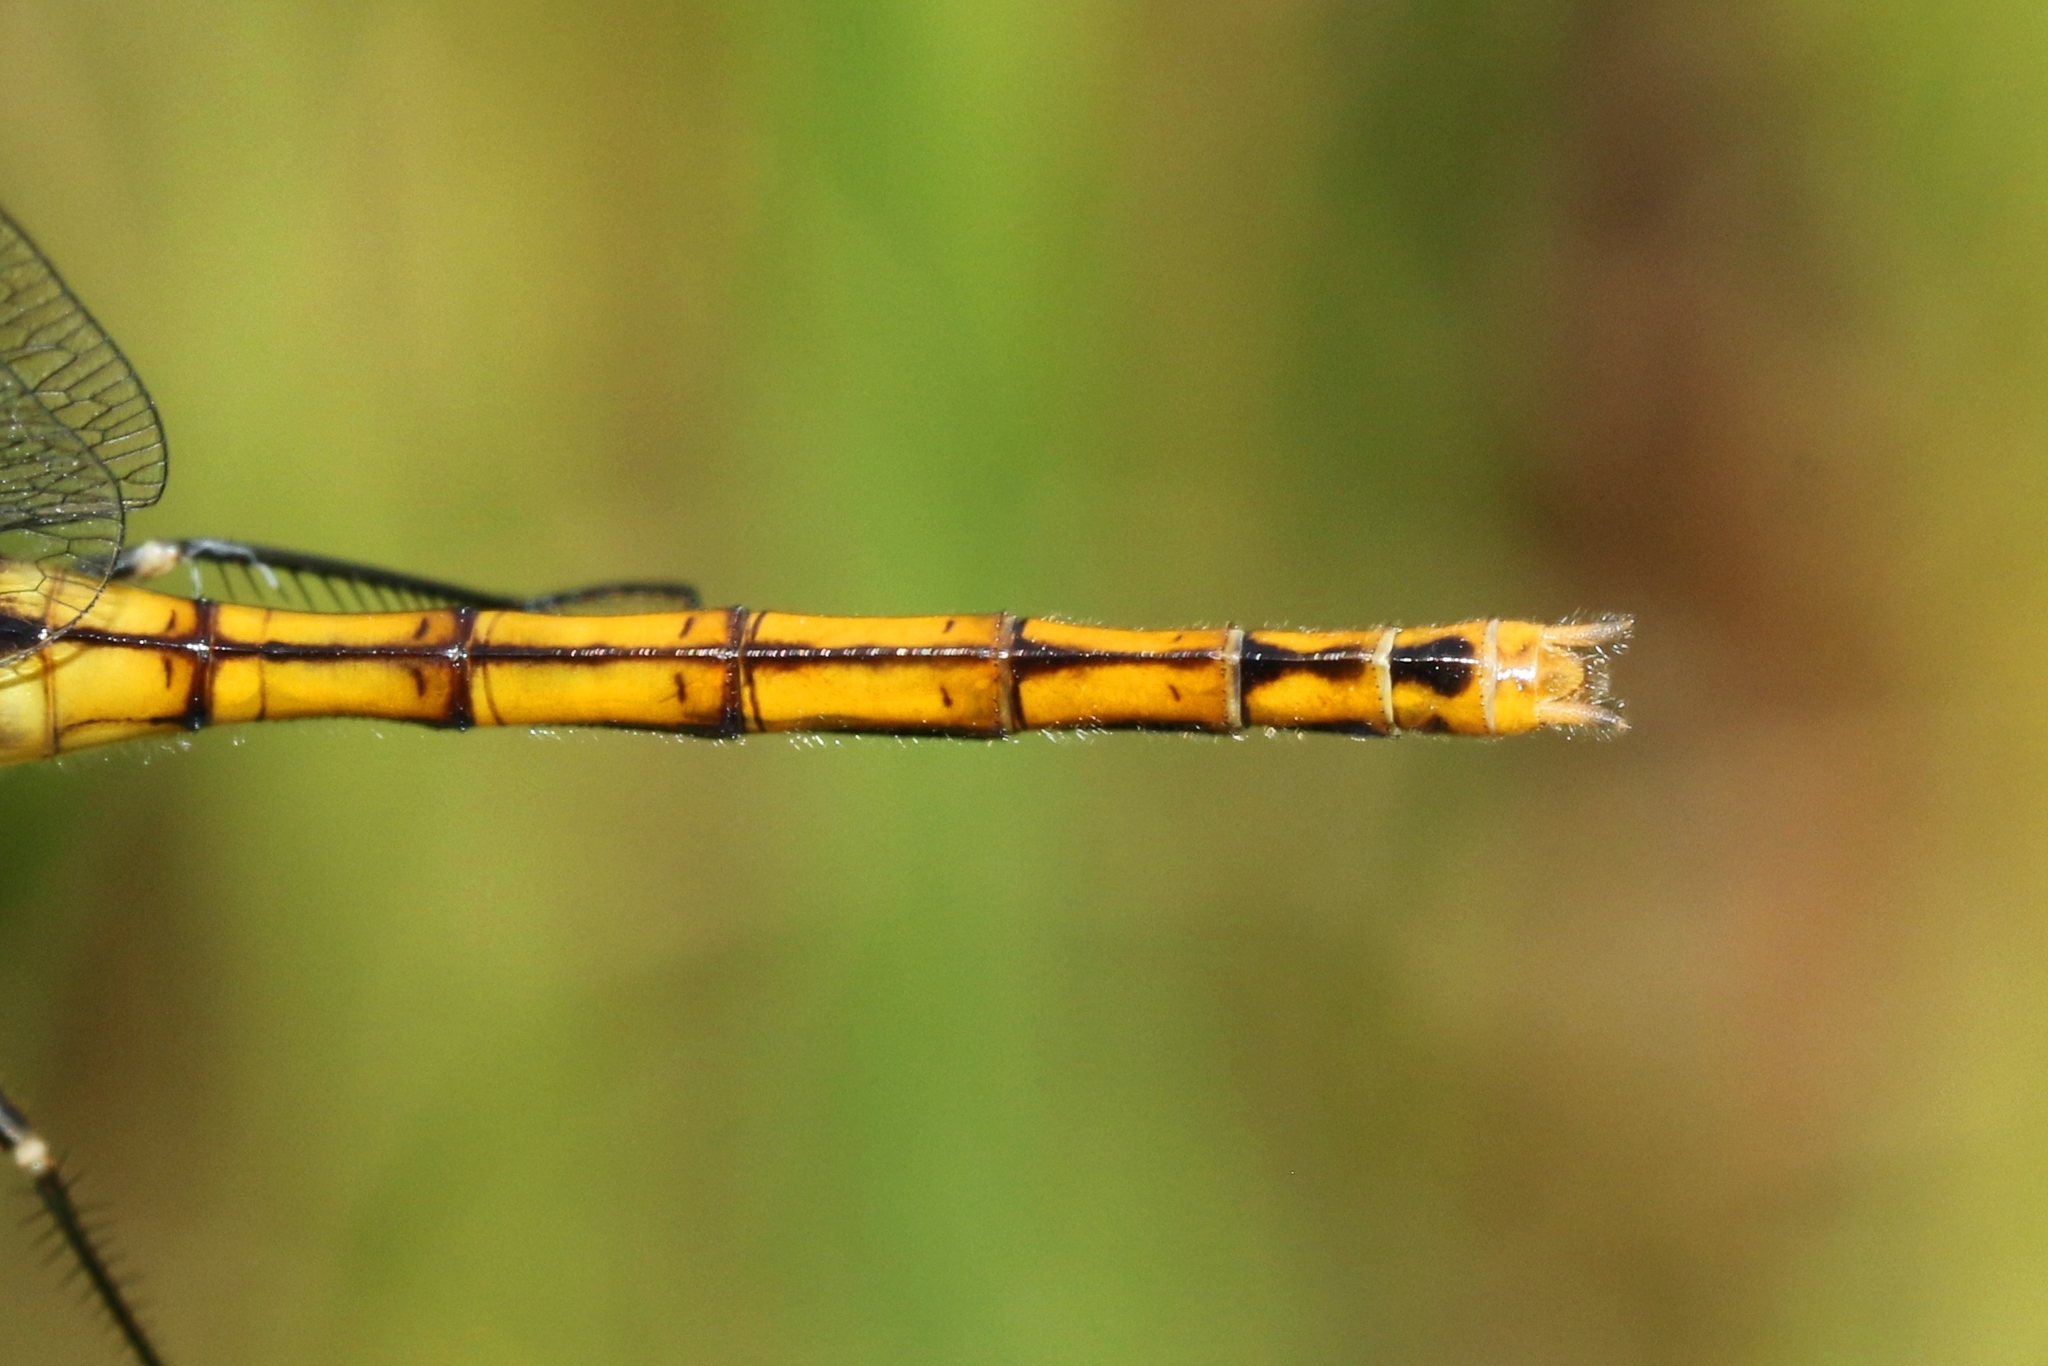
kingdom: Animalia
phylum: Arthropoda
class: Insecta
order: Odonata
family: Libellulidae
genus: Sympetrum
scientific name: Sympetrum costiferum
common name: Saffron-winged meadowhawk
